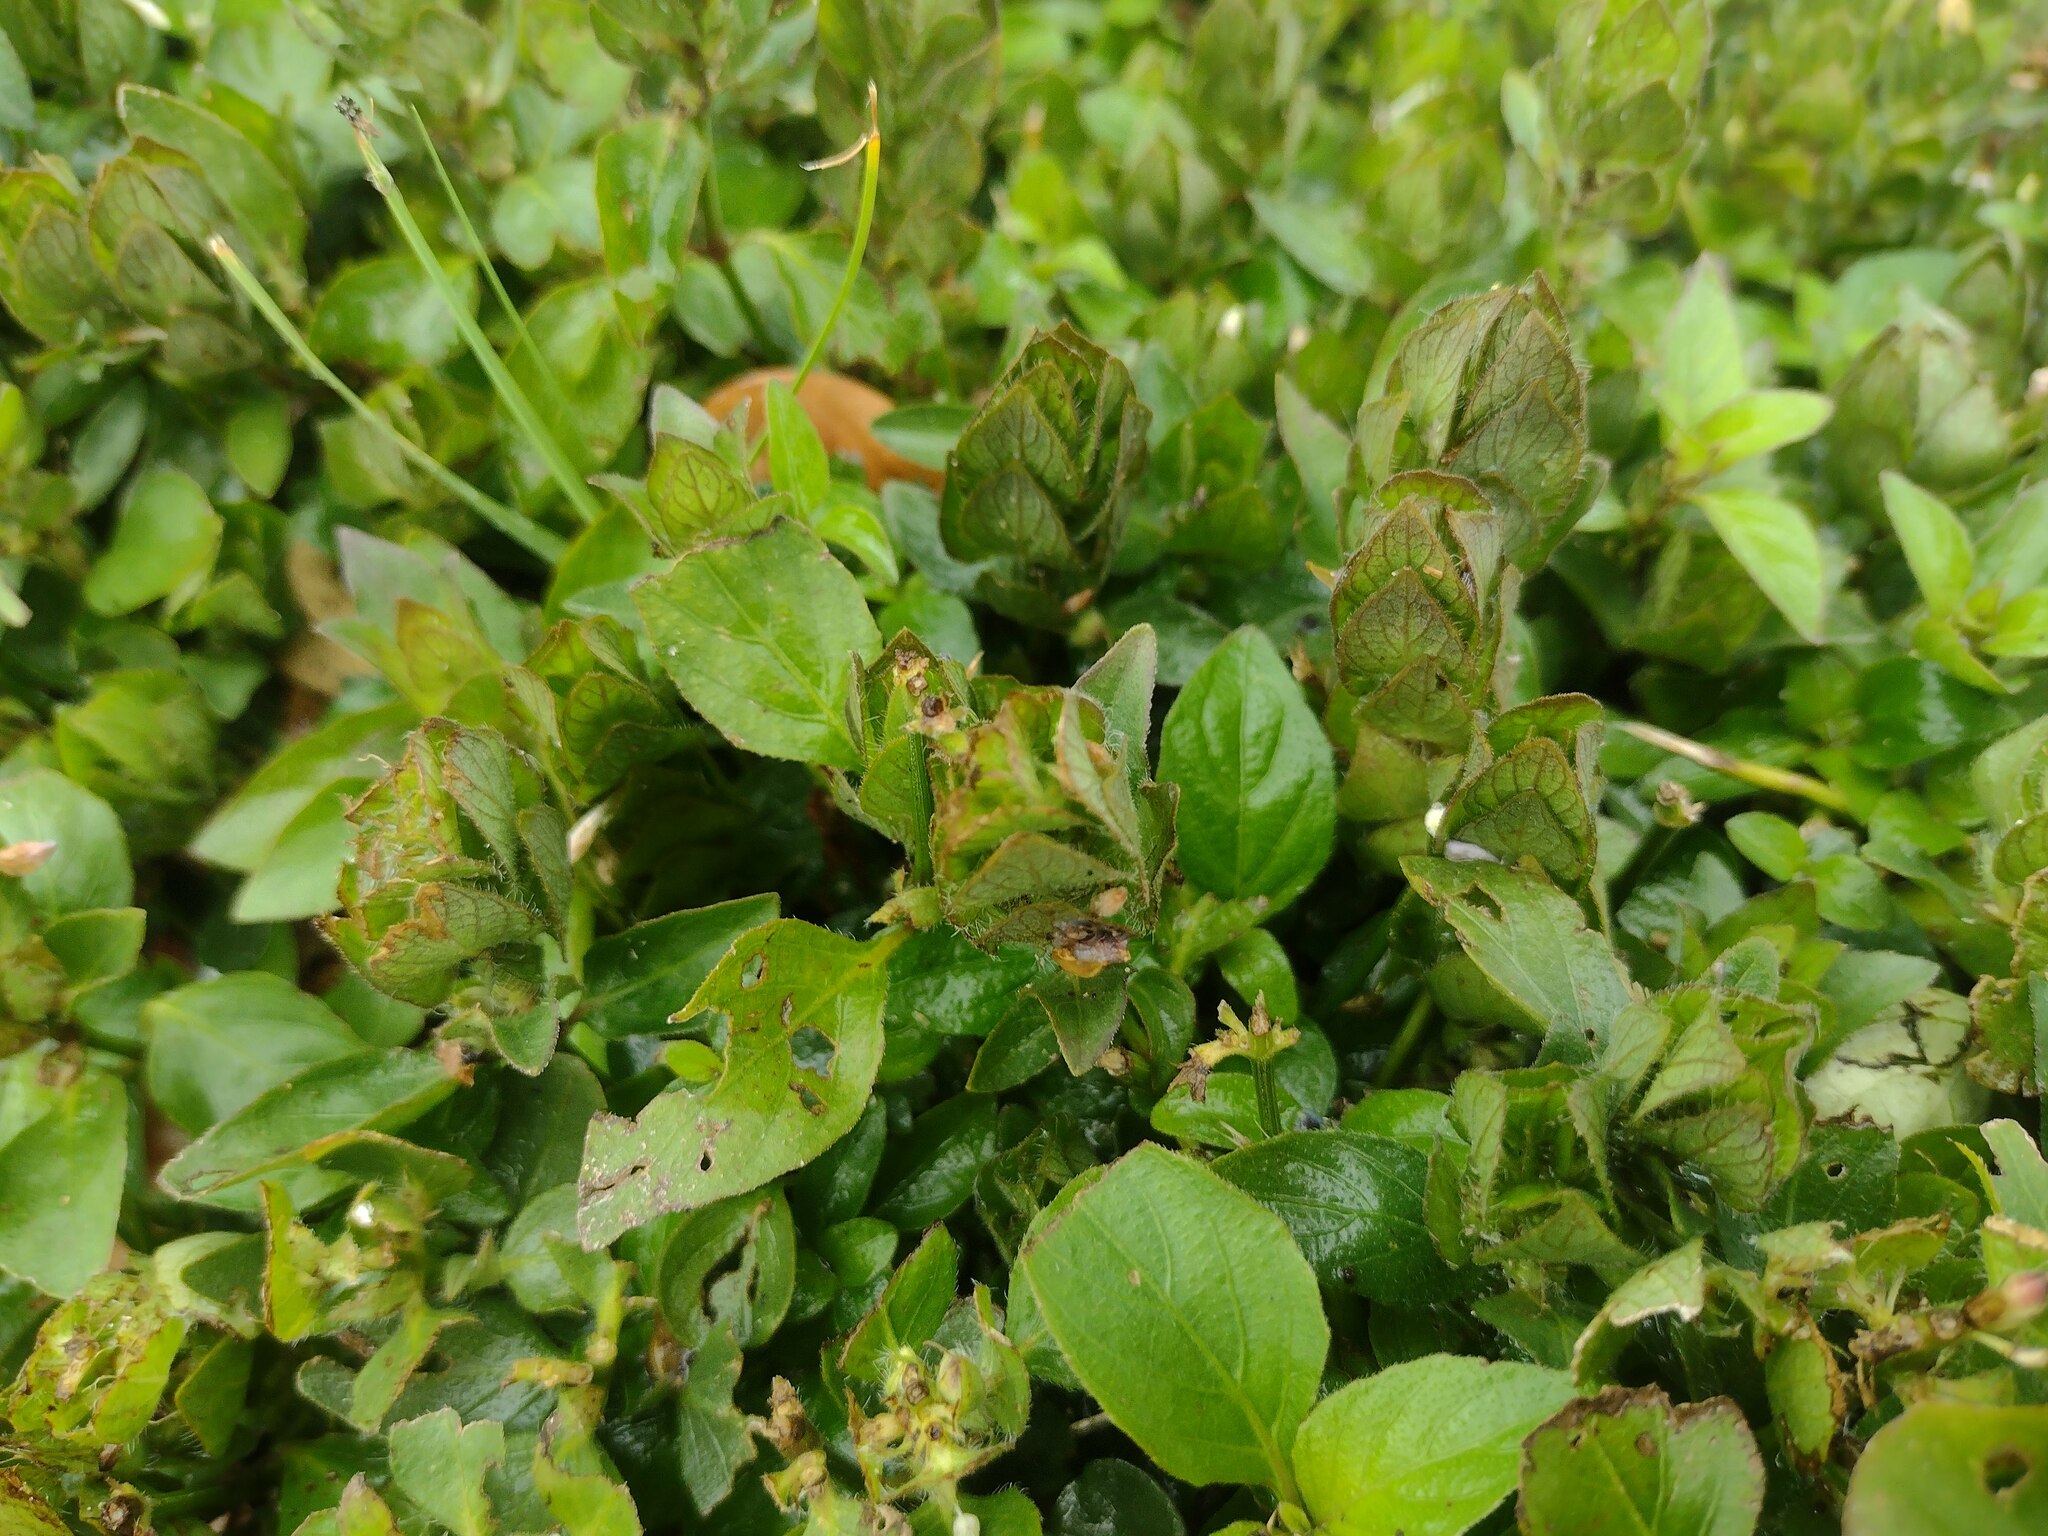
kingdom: Plantae
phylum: Tracheophyta
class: Magnoliopsida
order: Lamiales
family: Acanthaceae
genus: Ruellia
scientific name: Ruellia blechum
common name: Browne's blechum
